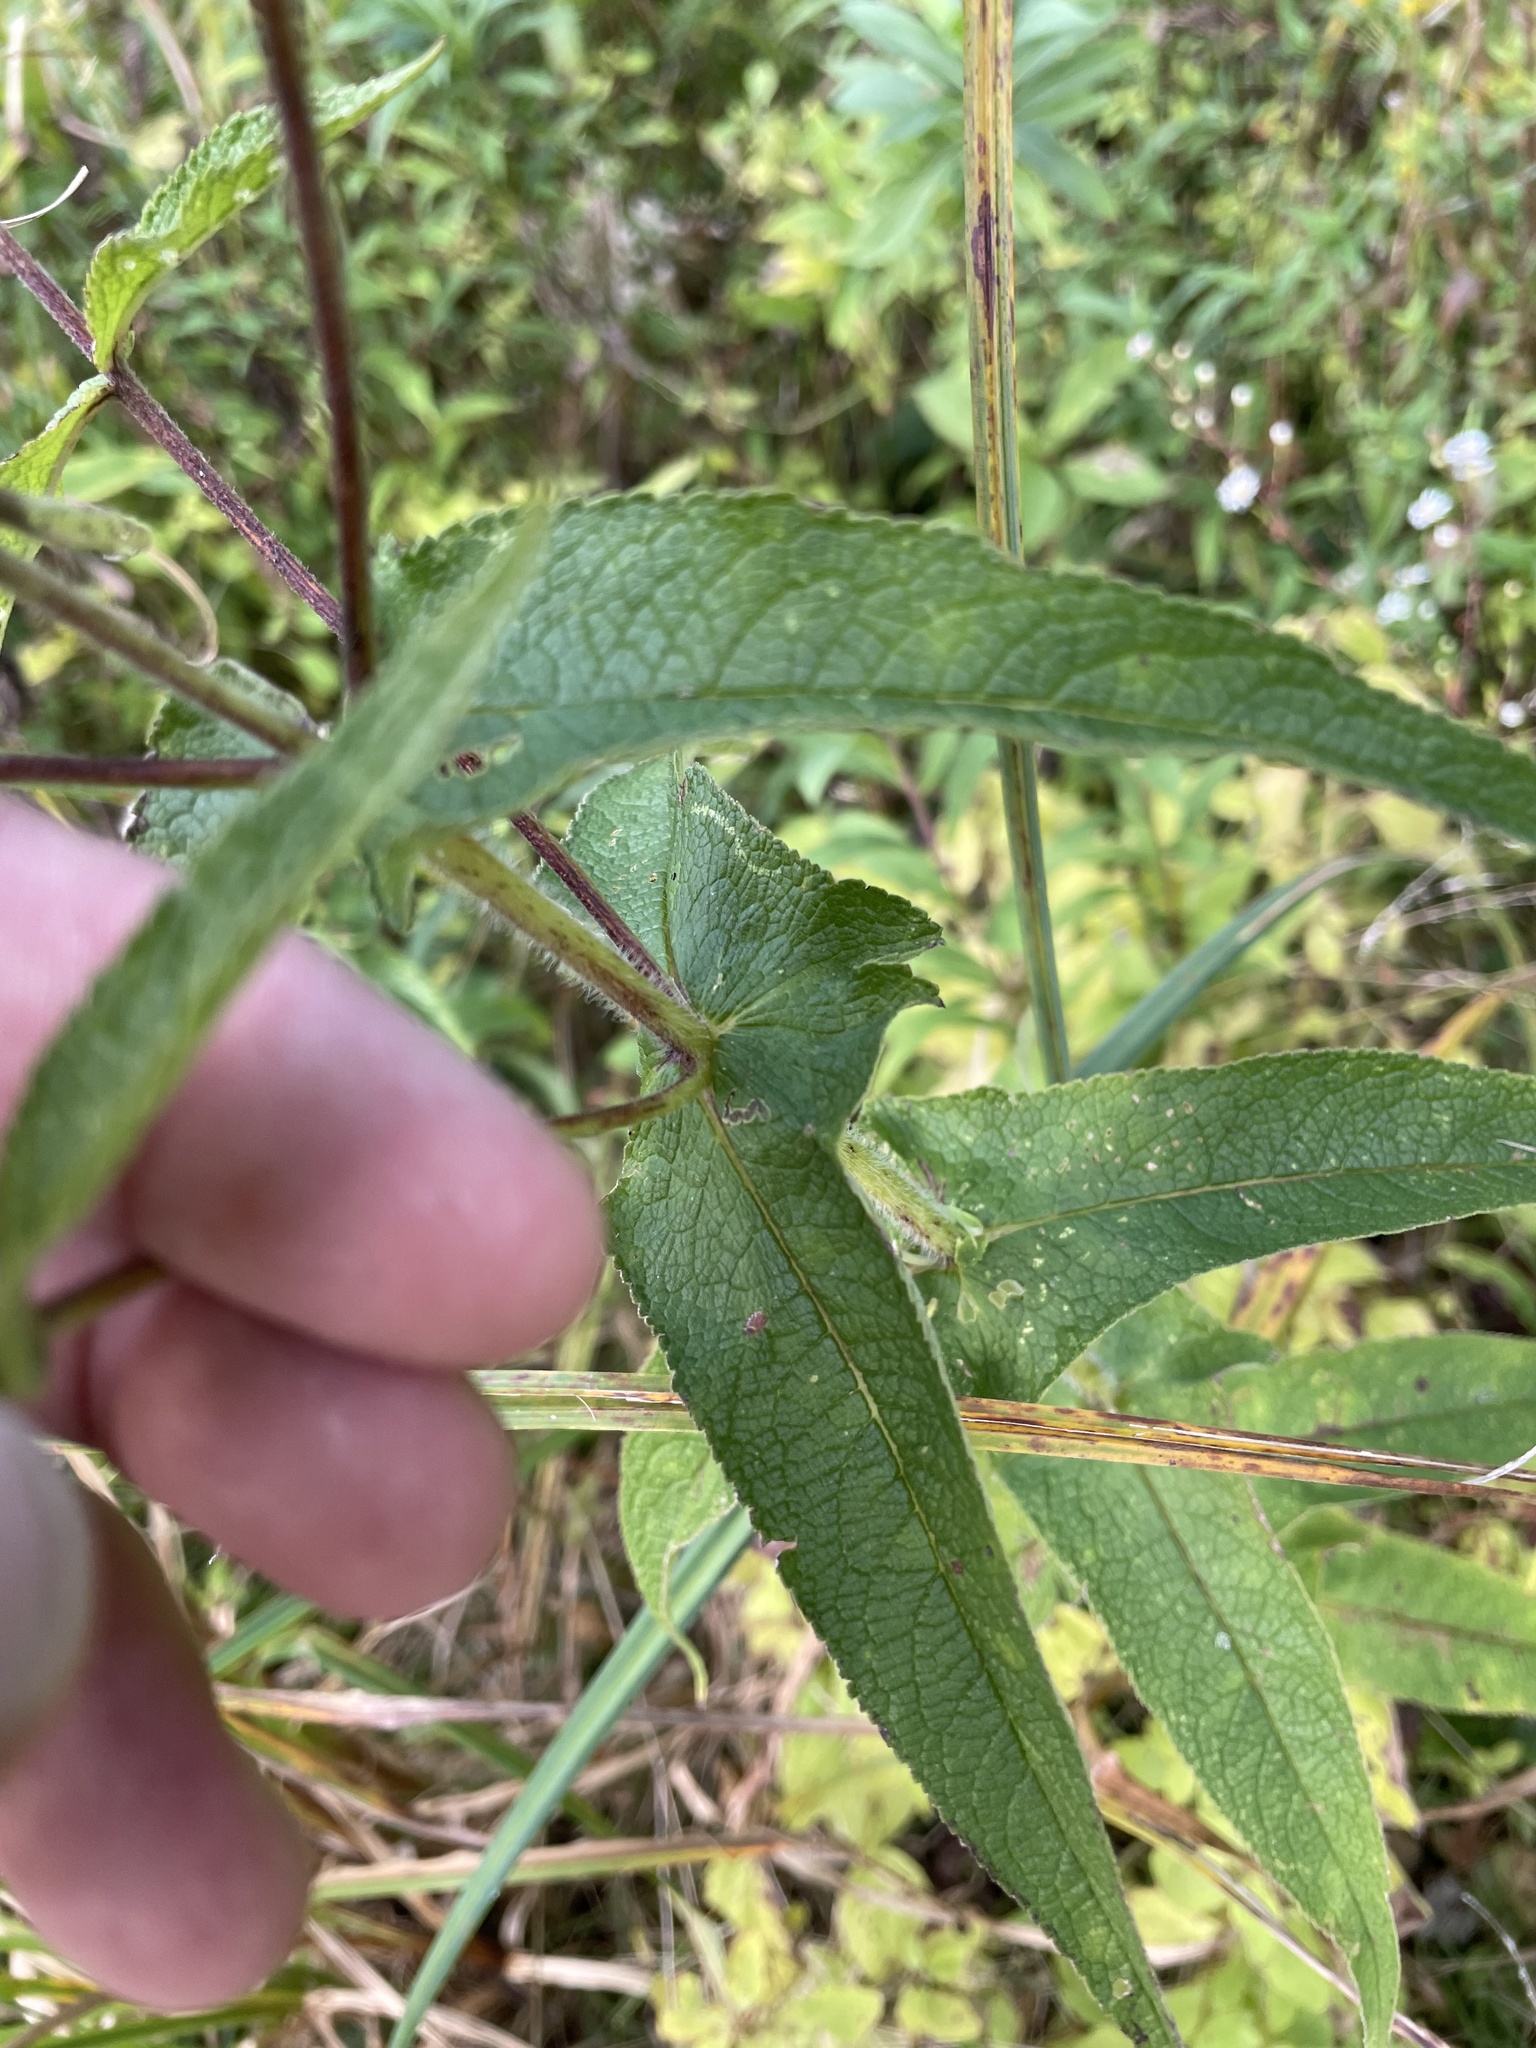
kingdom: Plantae
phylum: Tracheophyta
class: Magnoliopsida
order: Asterales
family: Asteraceae
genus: Eupatorium
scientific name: Eupatorium perfoliatum
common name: Boneset
